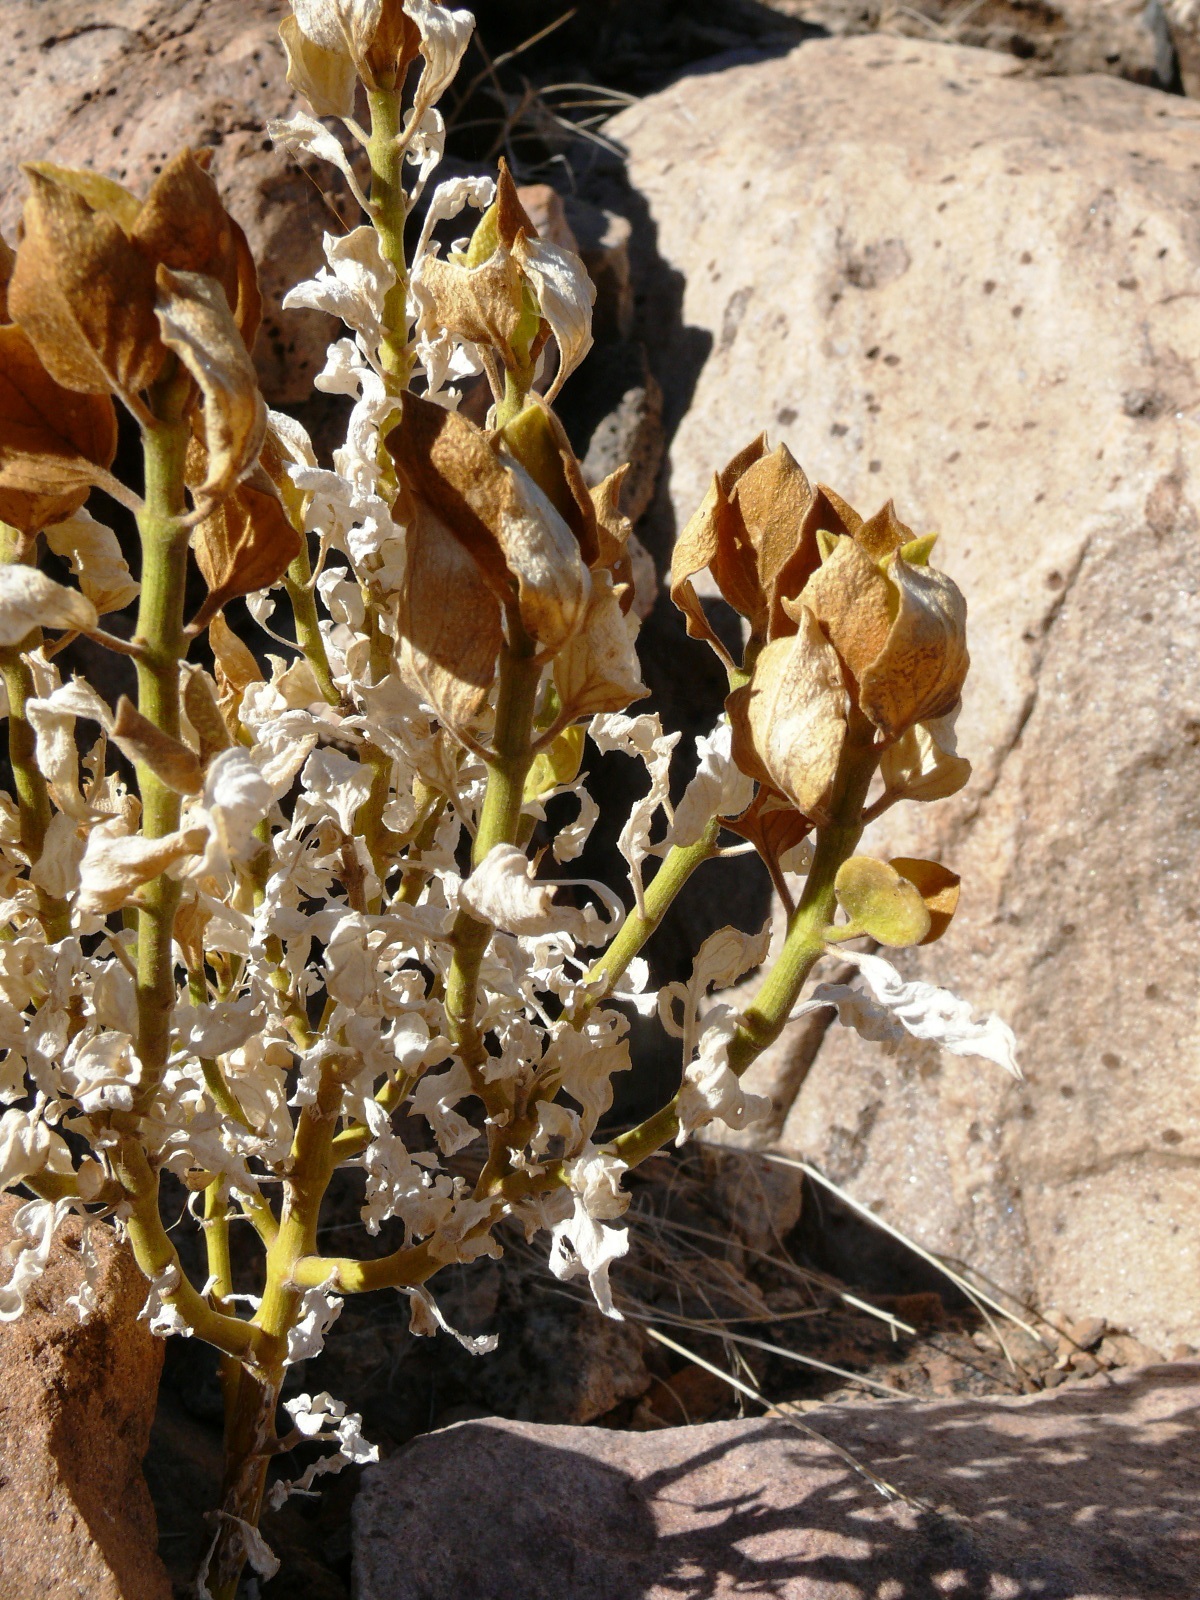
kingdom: Plantae
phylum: Tracheophyta
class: Magnoliopsida
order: Lamiales
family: Acanthaceae
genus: Pogonospermum
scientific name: Pogonospermum
